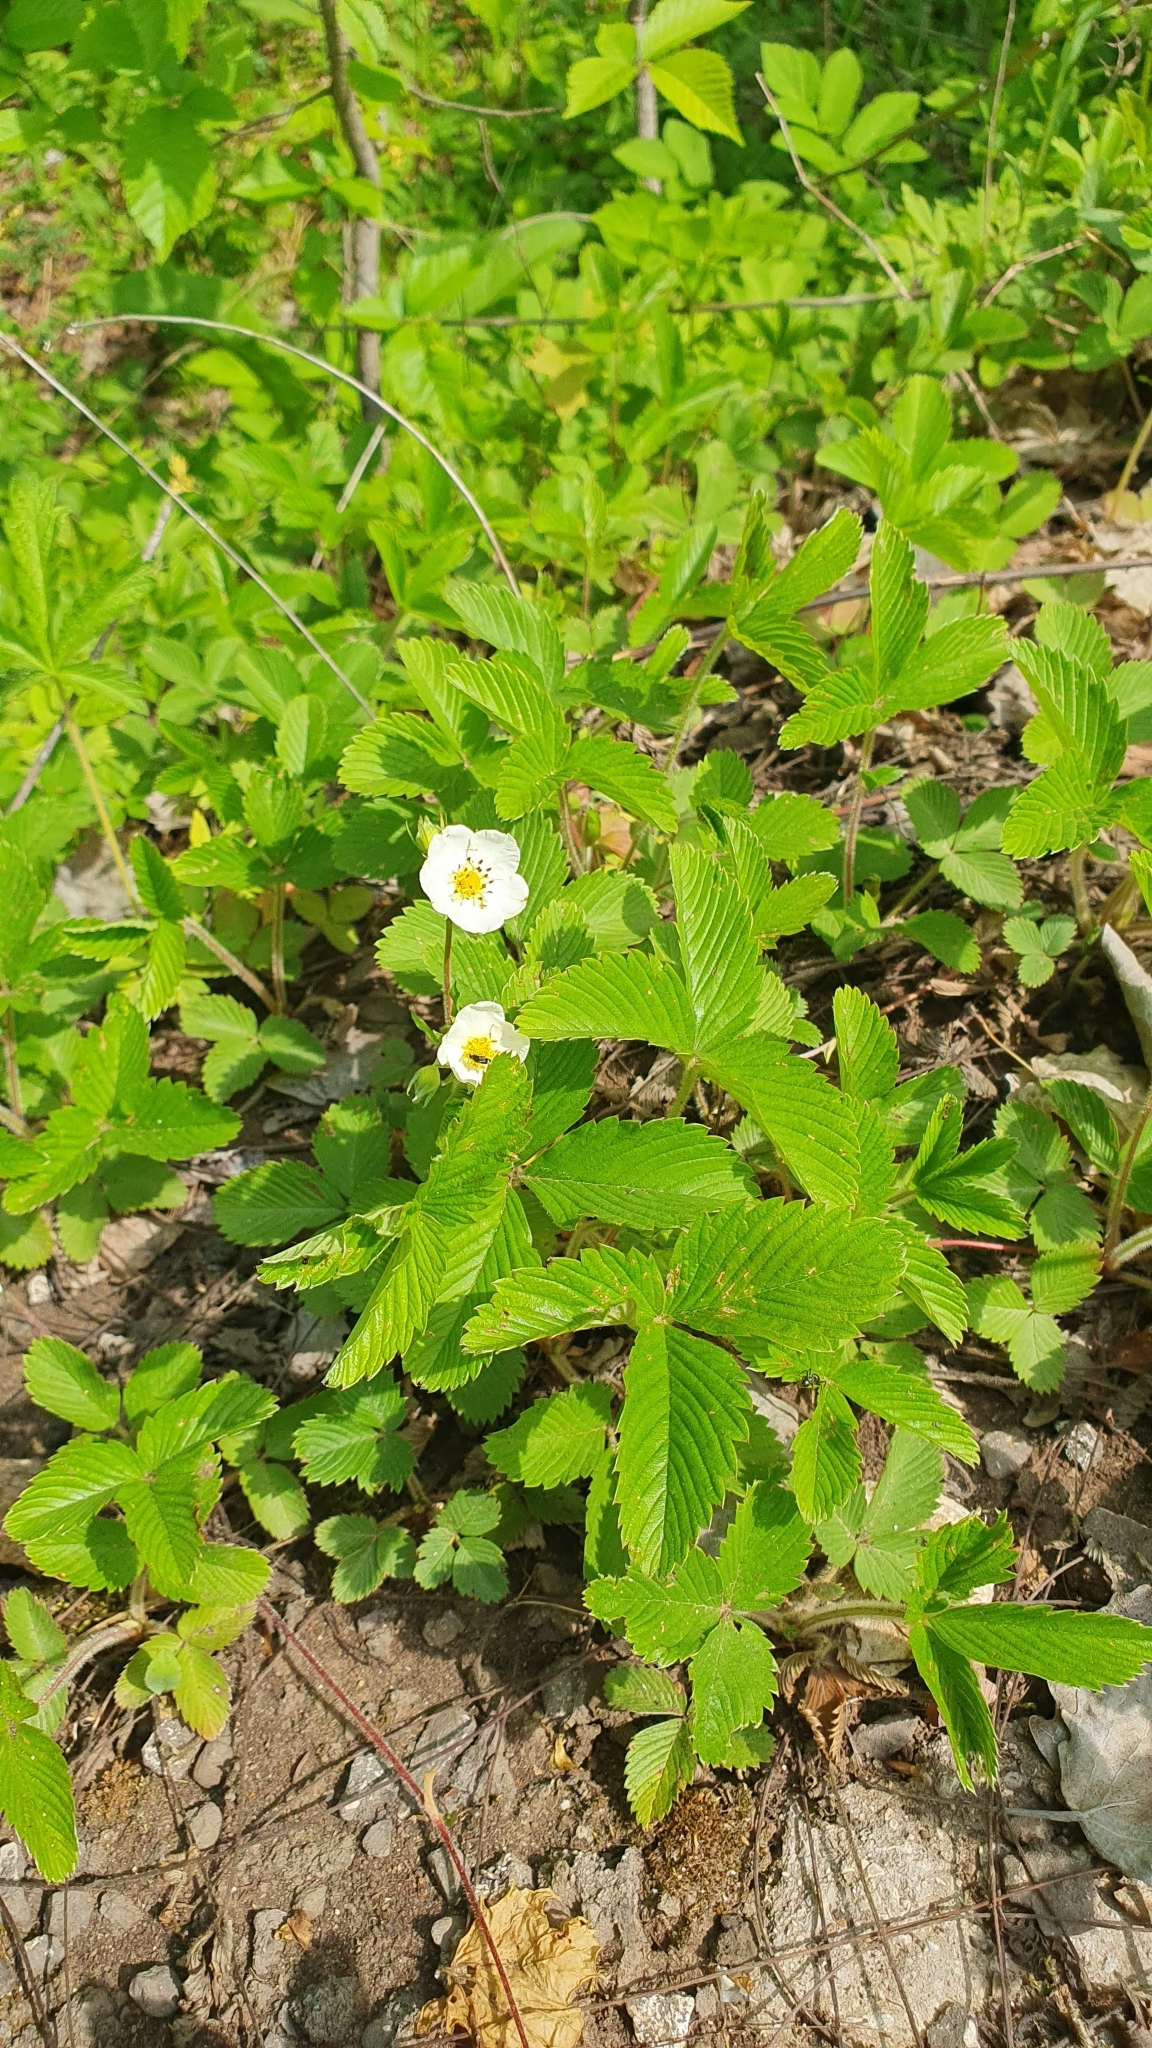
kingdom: Plantae
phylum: Tracheophyta
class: Magnoliopsida
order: Rosales
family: Rosaceae
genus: Fragaria
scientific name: Fragaria viridis
